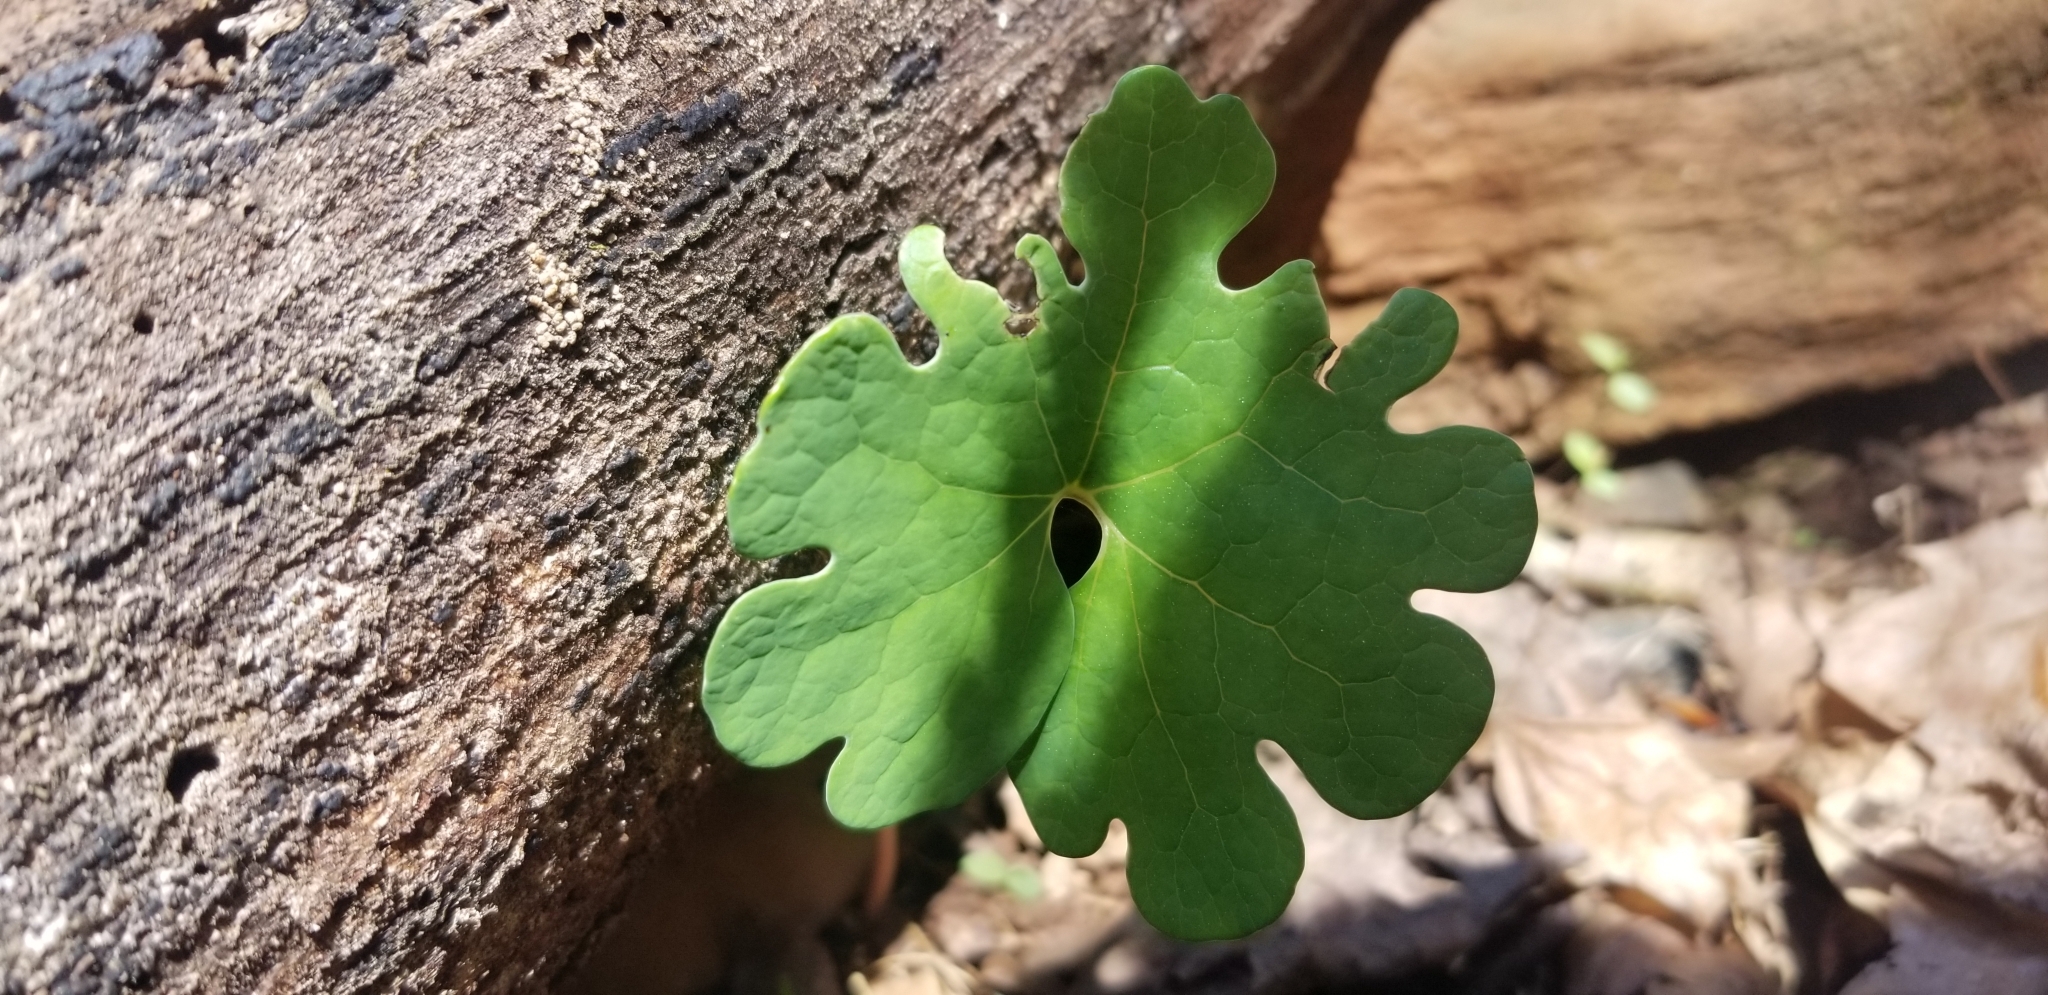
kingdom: Plantae
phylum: Tracheophyta
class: Magnoliopsida
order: Ranunculales
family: Papaveraceae
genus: Sanguinaria
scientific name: Sanguinaria canadensis
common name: Bloodroot
